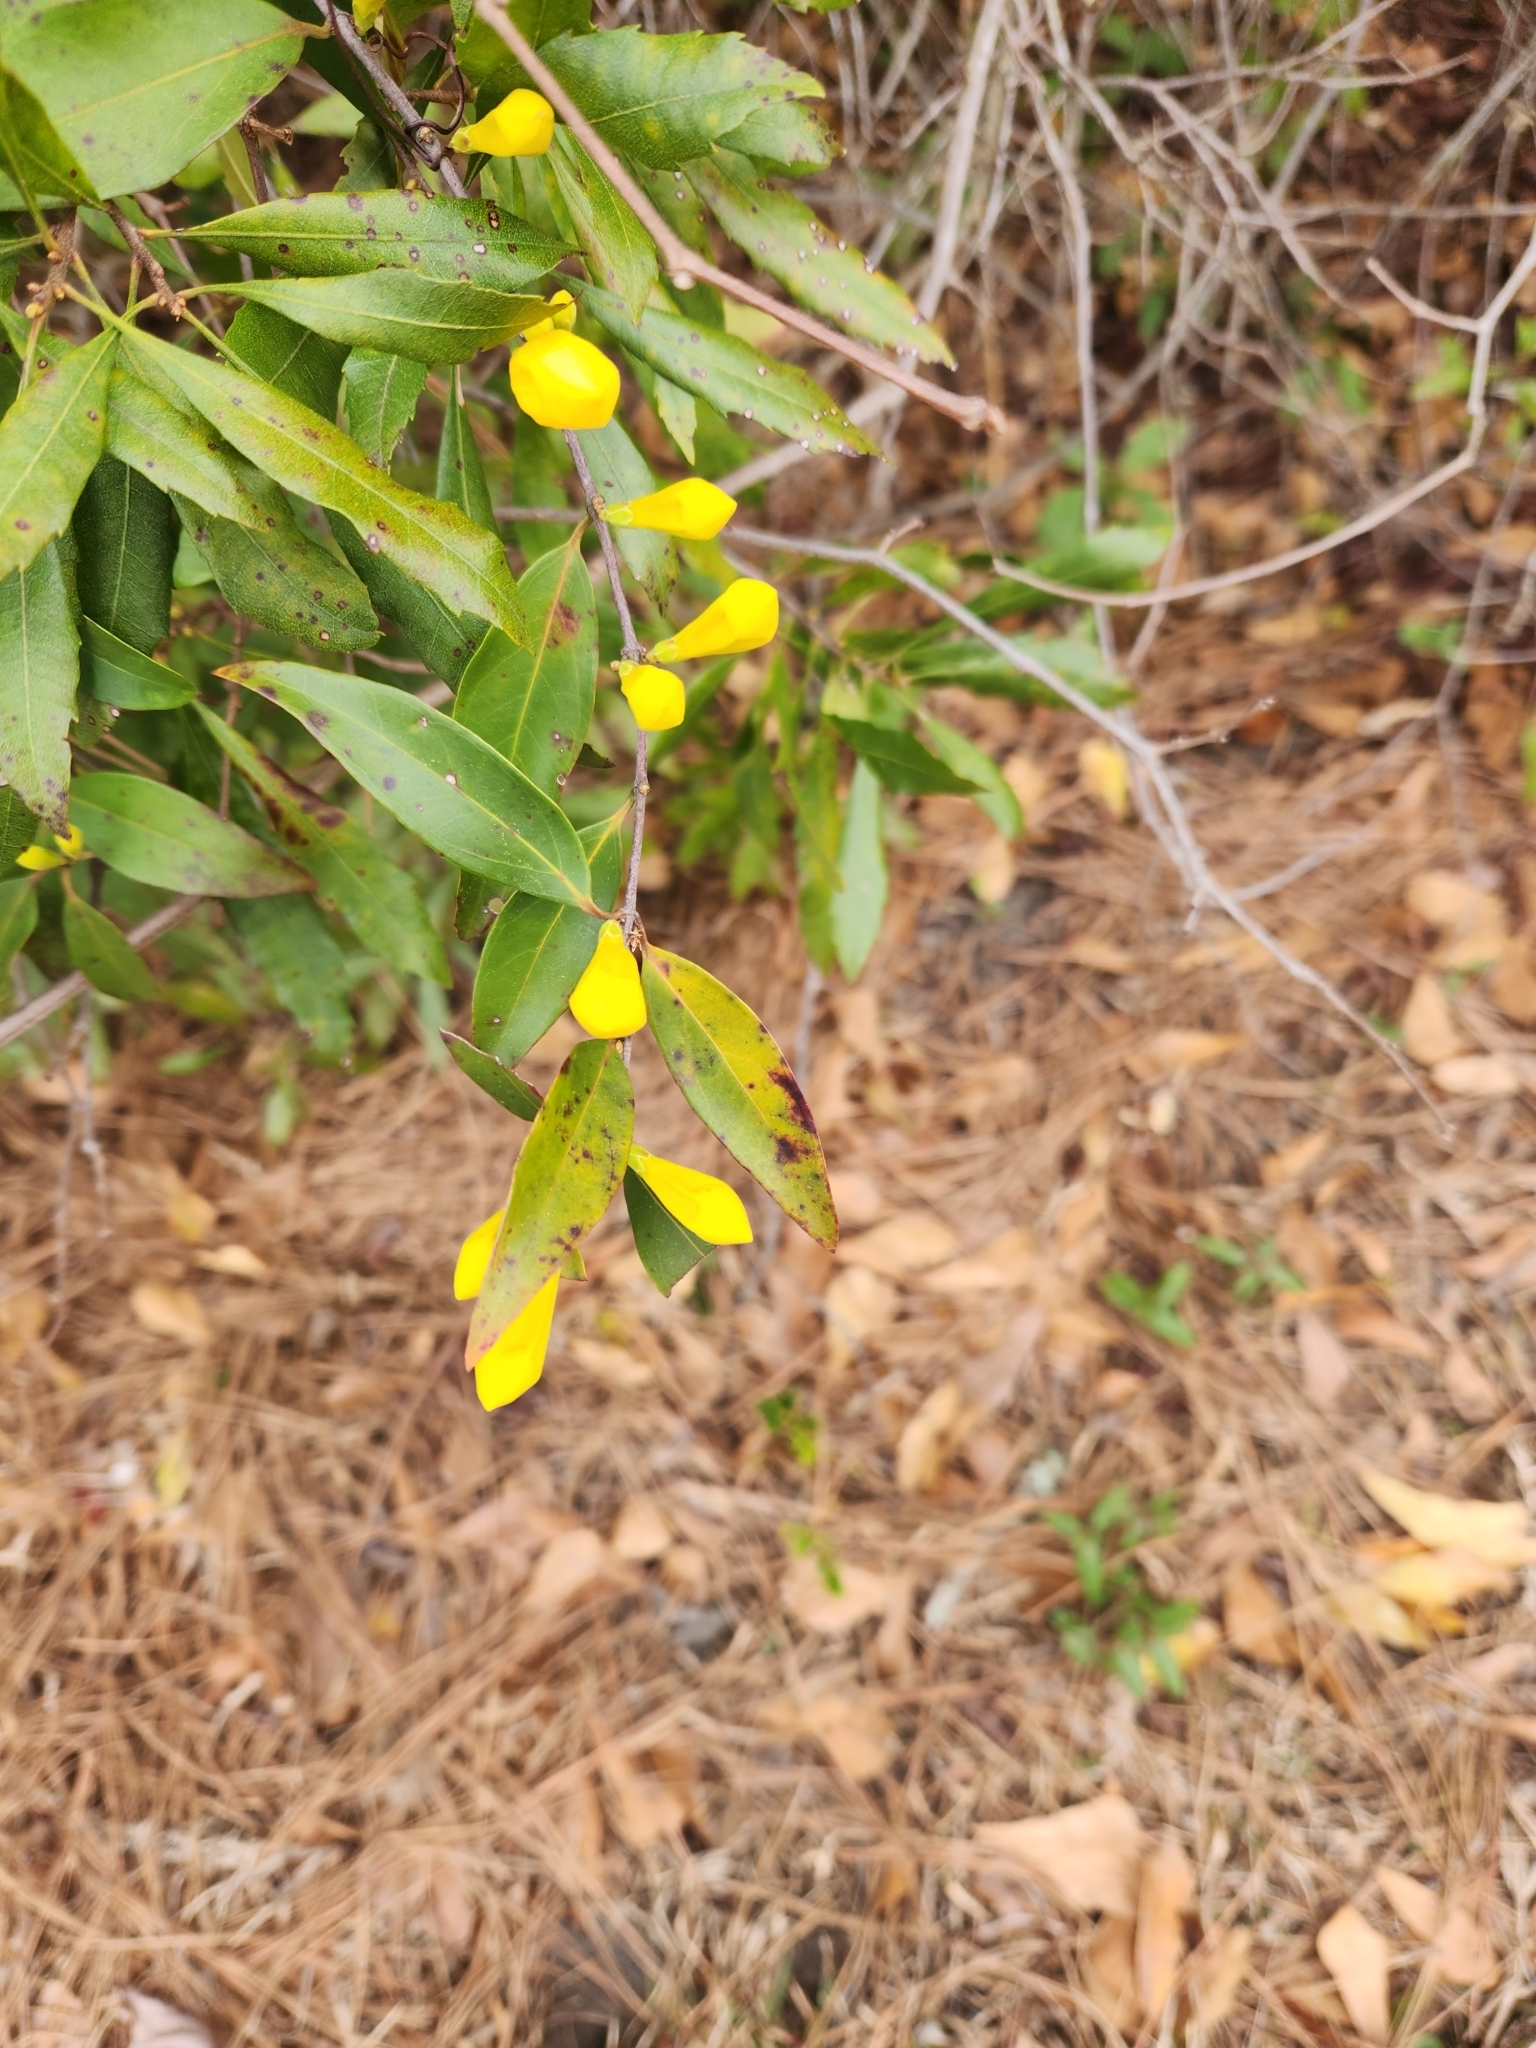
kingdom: Plantae
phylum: Tracheophyta
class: Magnoliopsida
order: Gentianales
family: Gelsemiaceae
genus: Gelsemium
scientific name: Gelsemium sempervirens
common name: Carolina-jasmine
